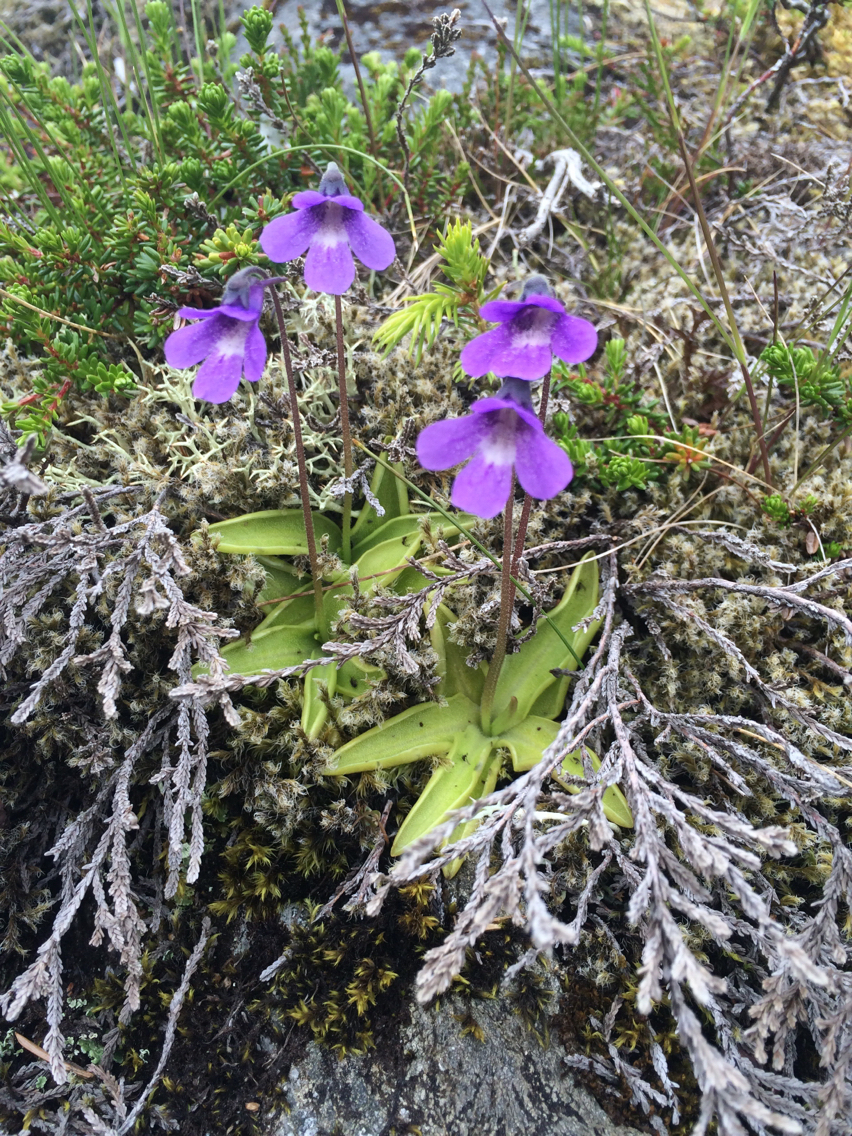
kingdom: Plantae
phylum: Tracheophyta
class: Magnoliopsida
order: Lamiales
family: Lentibulariaceae
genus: Pinguicula
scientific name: Pinguicula vulgaris
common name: Common butterwort
